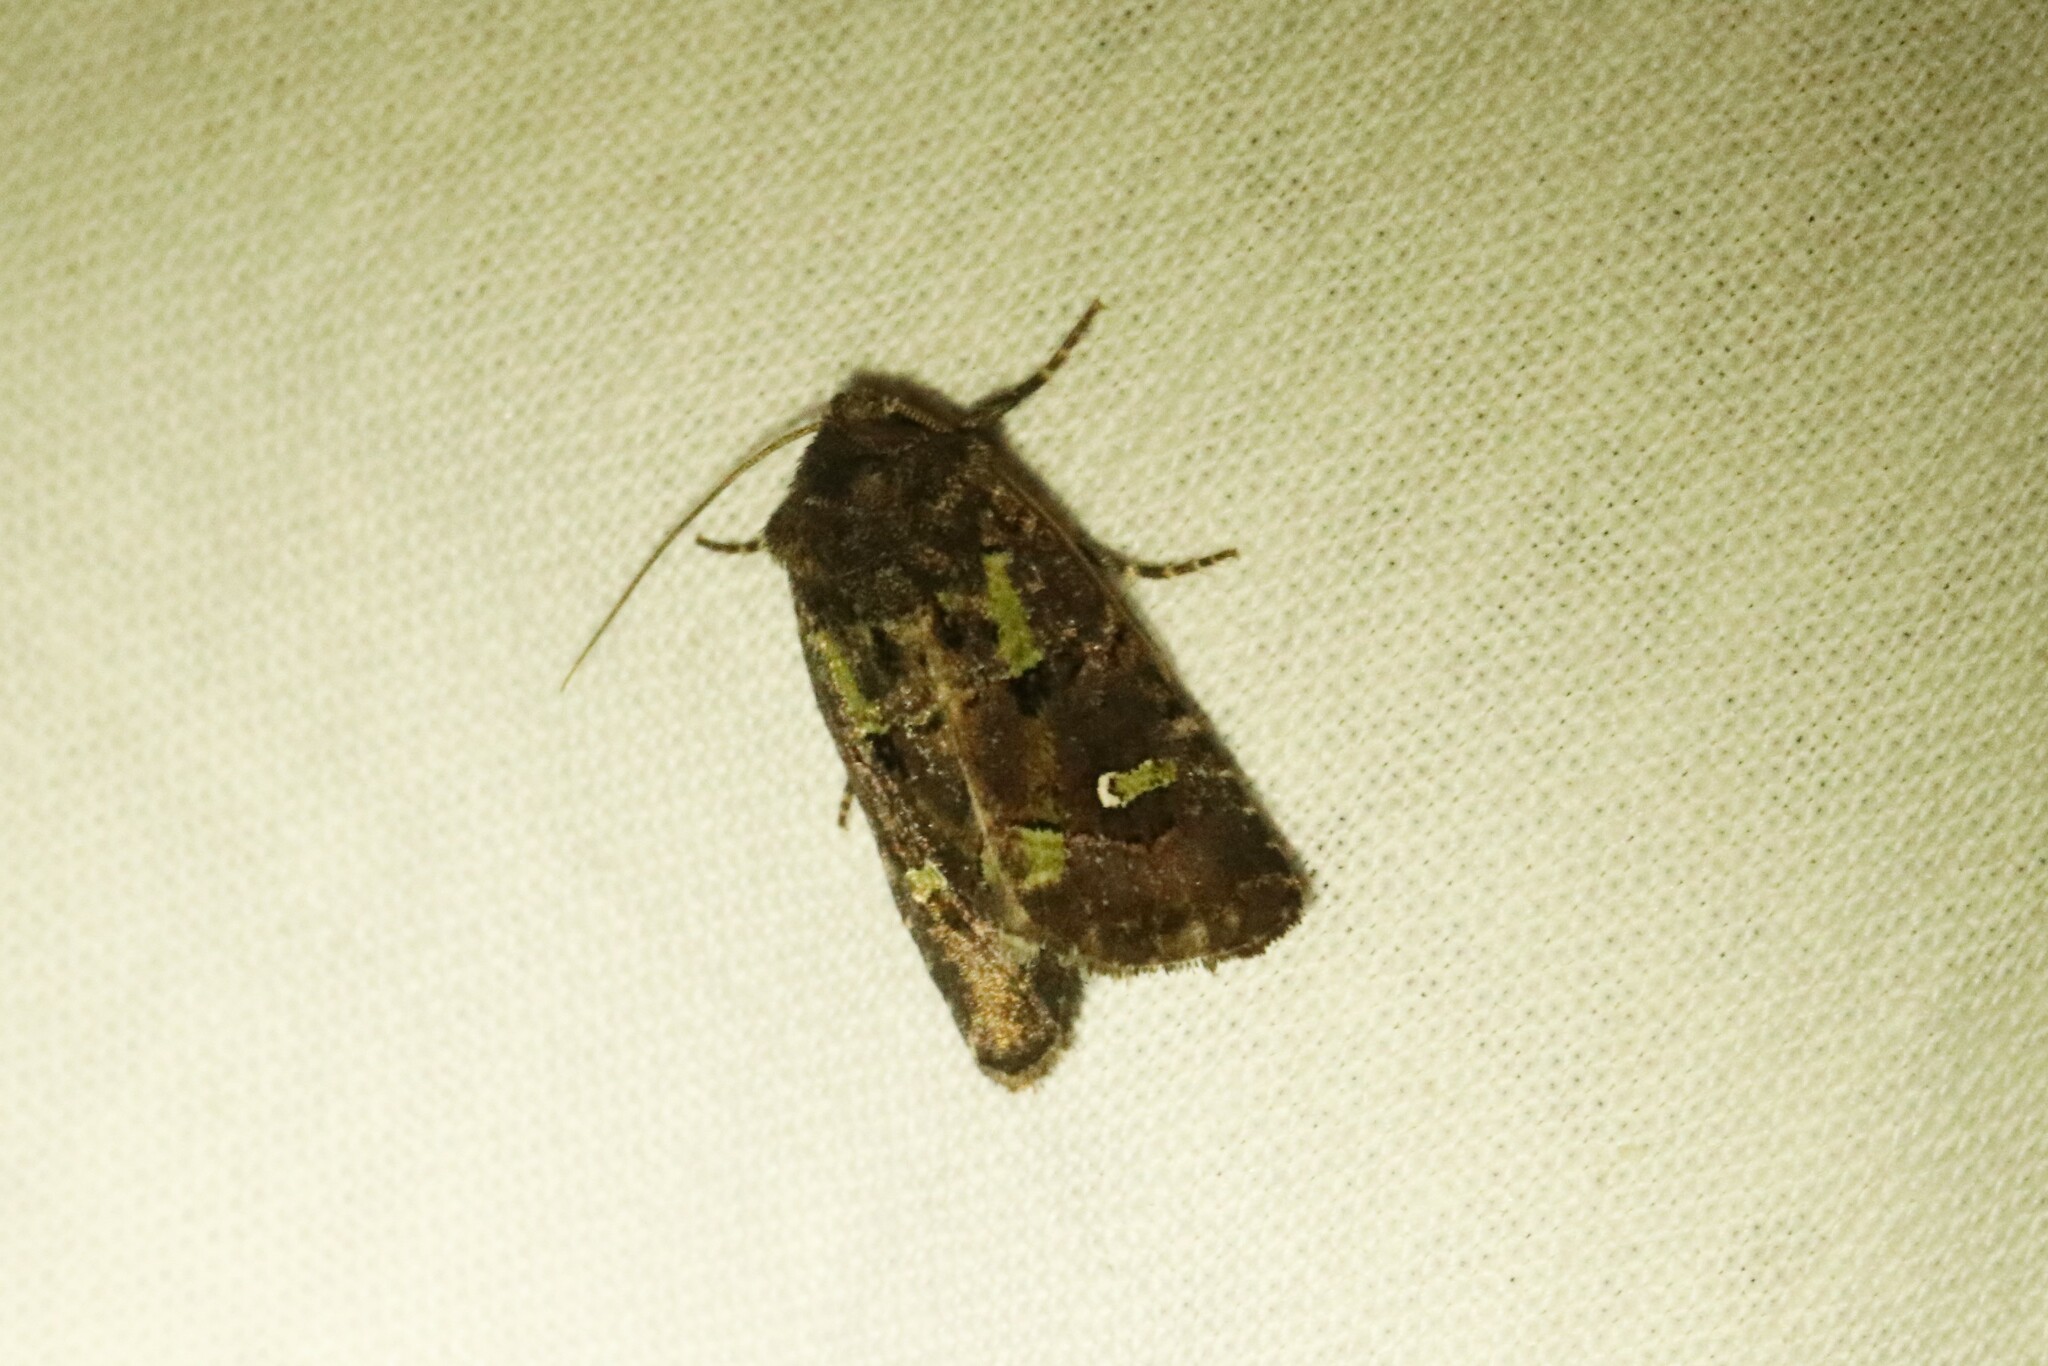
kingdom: Animalia
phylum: Arthropoda
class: Insecta
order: Lepidoptera
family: Noctuidae
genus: Lacinipolia
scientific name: Lacinipolia renigera
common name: Kidney-spotted minor
